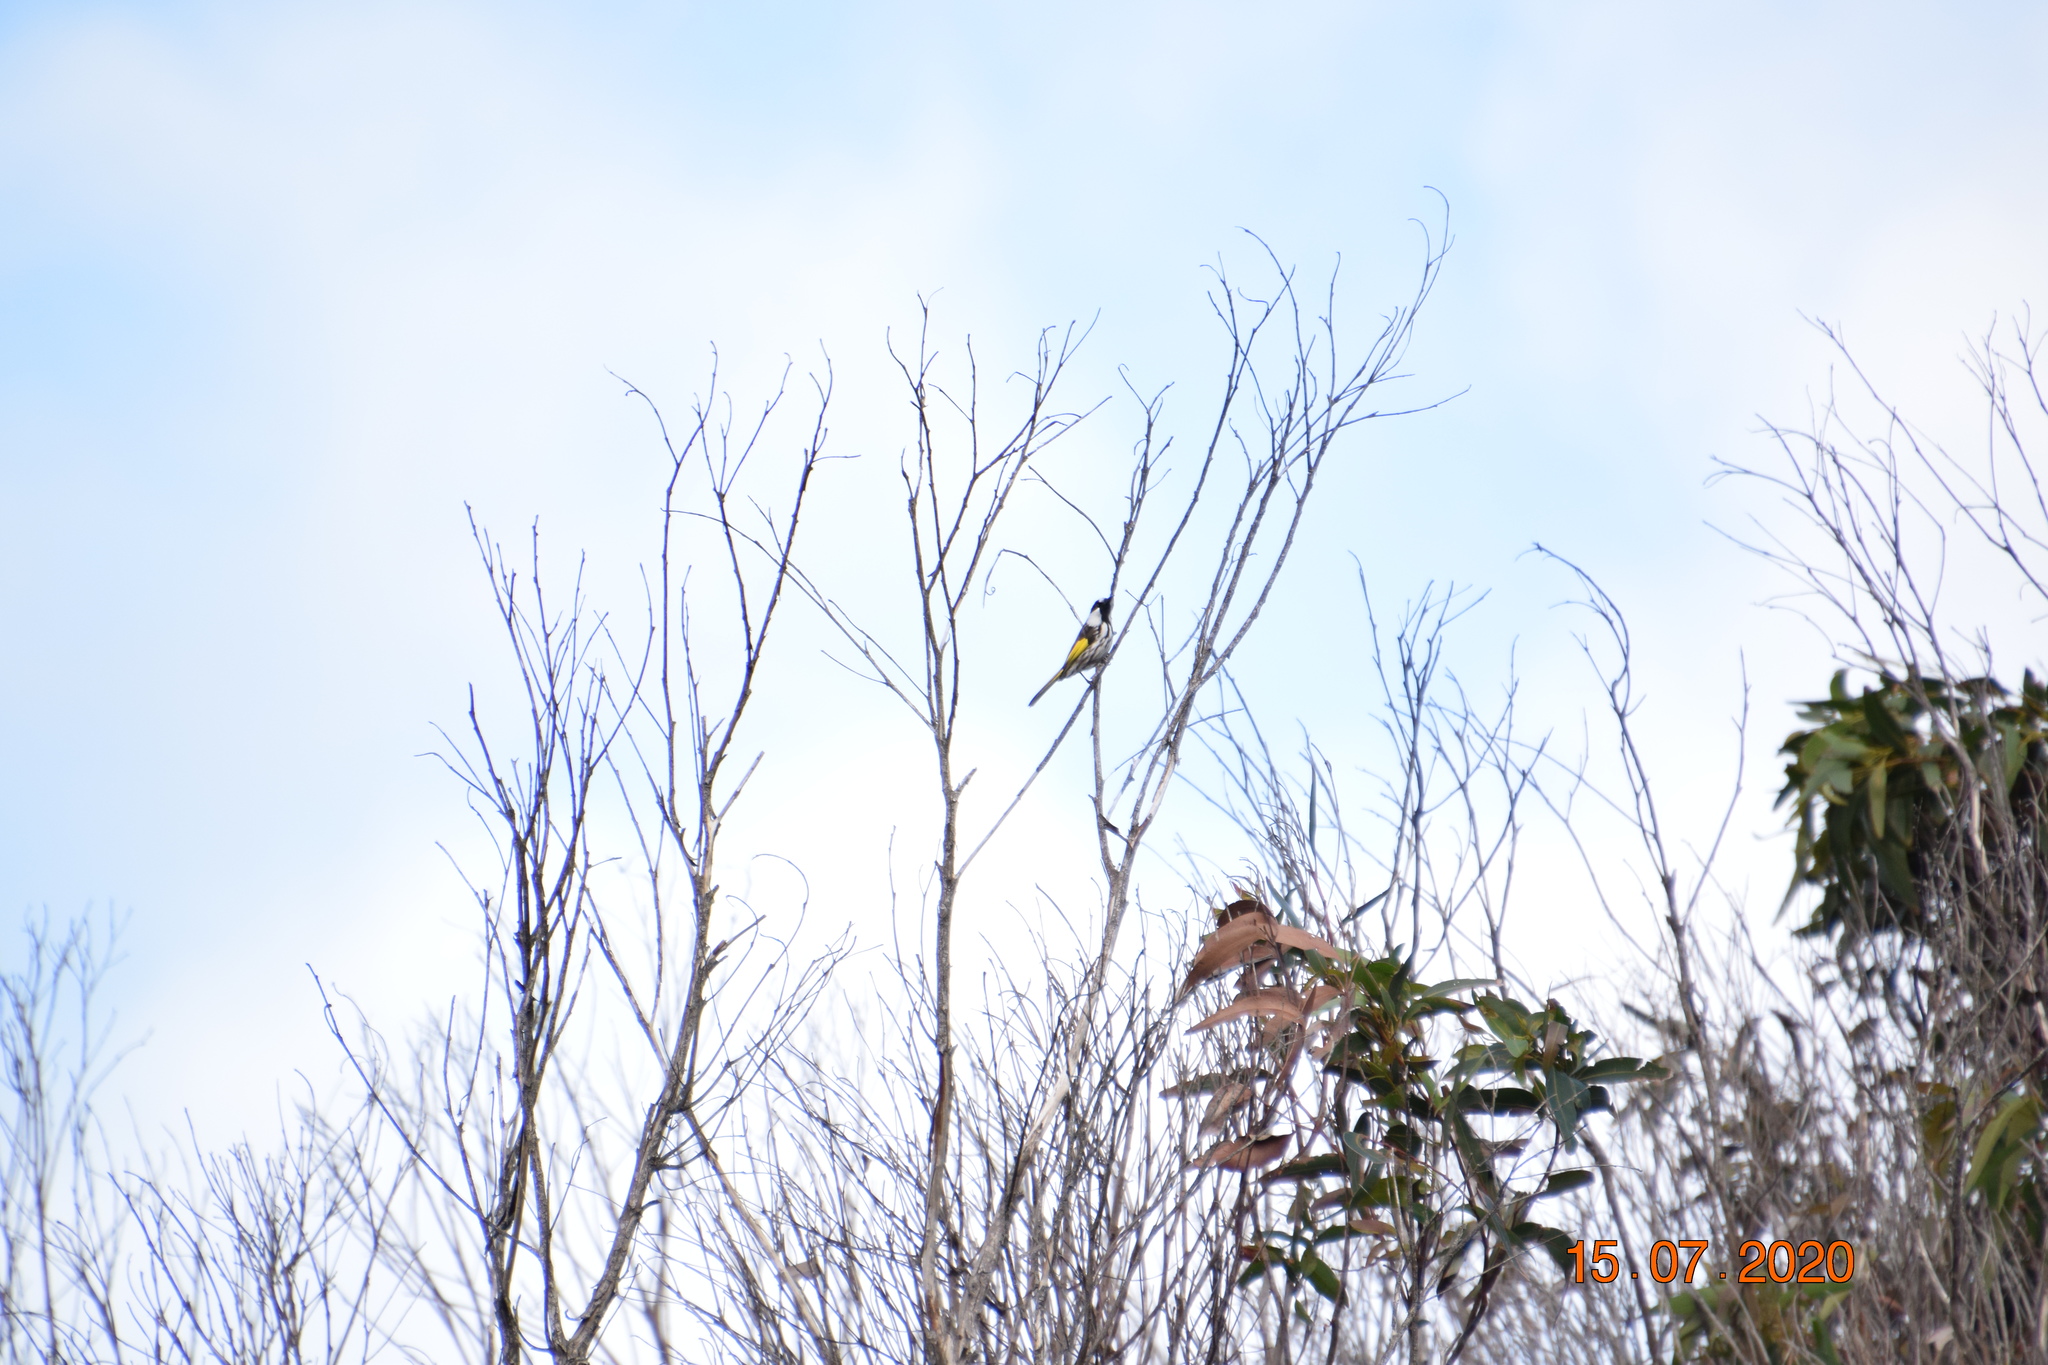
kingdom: Animalia
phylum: Chordata
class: Aves
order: Passeriformes
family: Meliphagidae
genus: Phylidonyris
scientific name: Phylidonyris niger
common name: White-cheeked honeyeater
